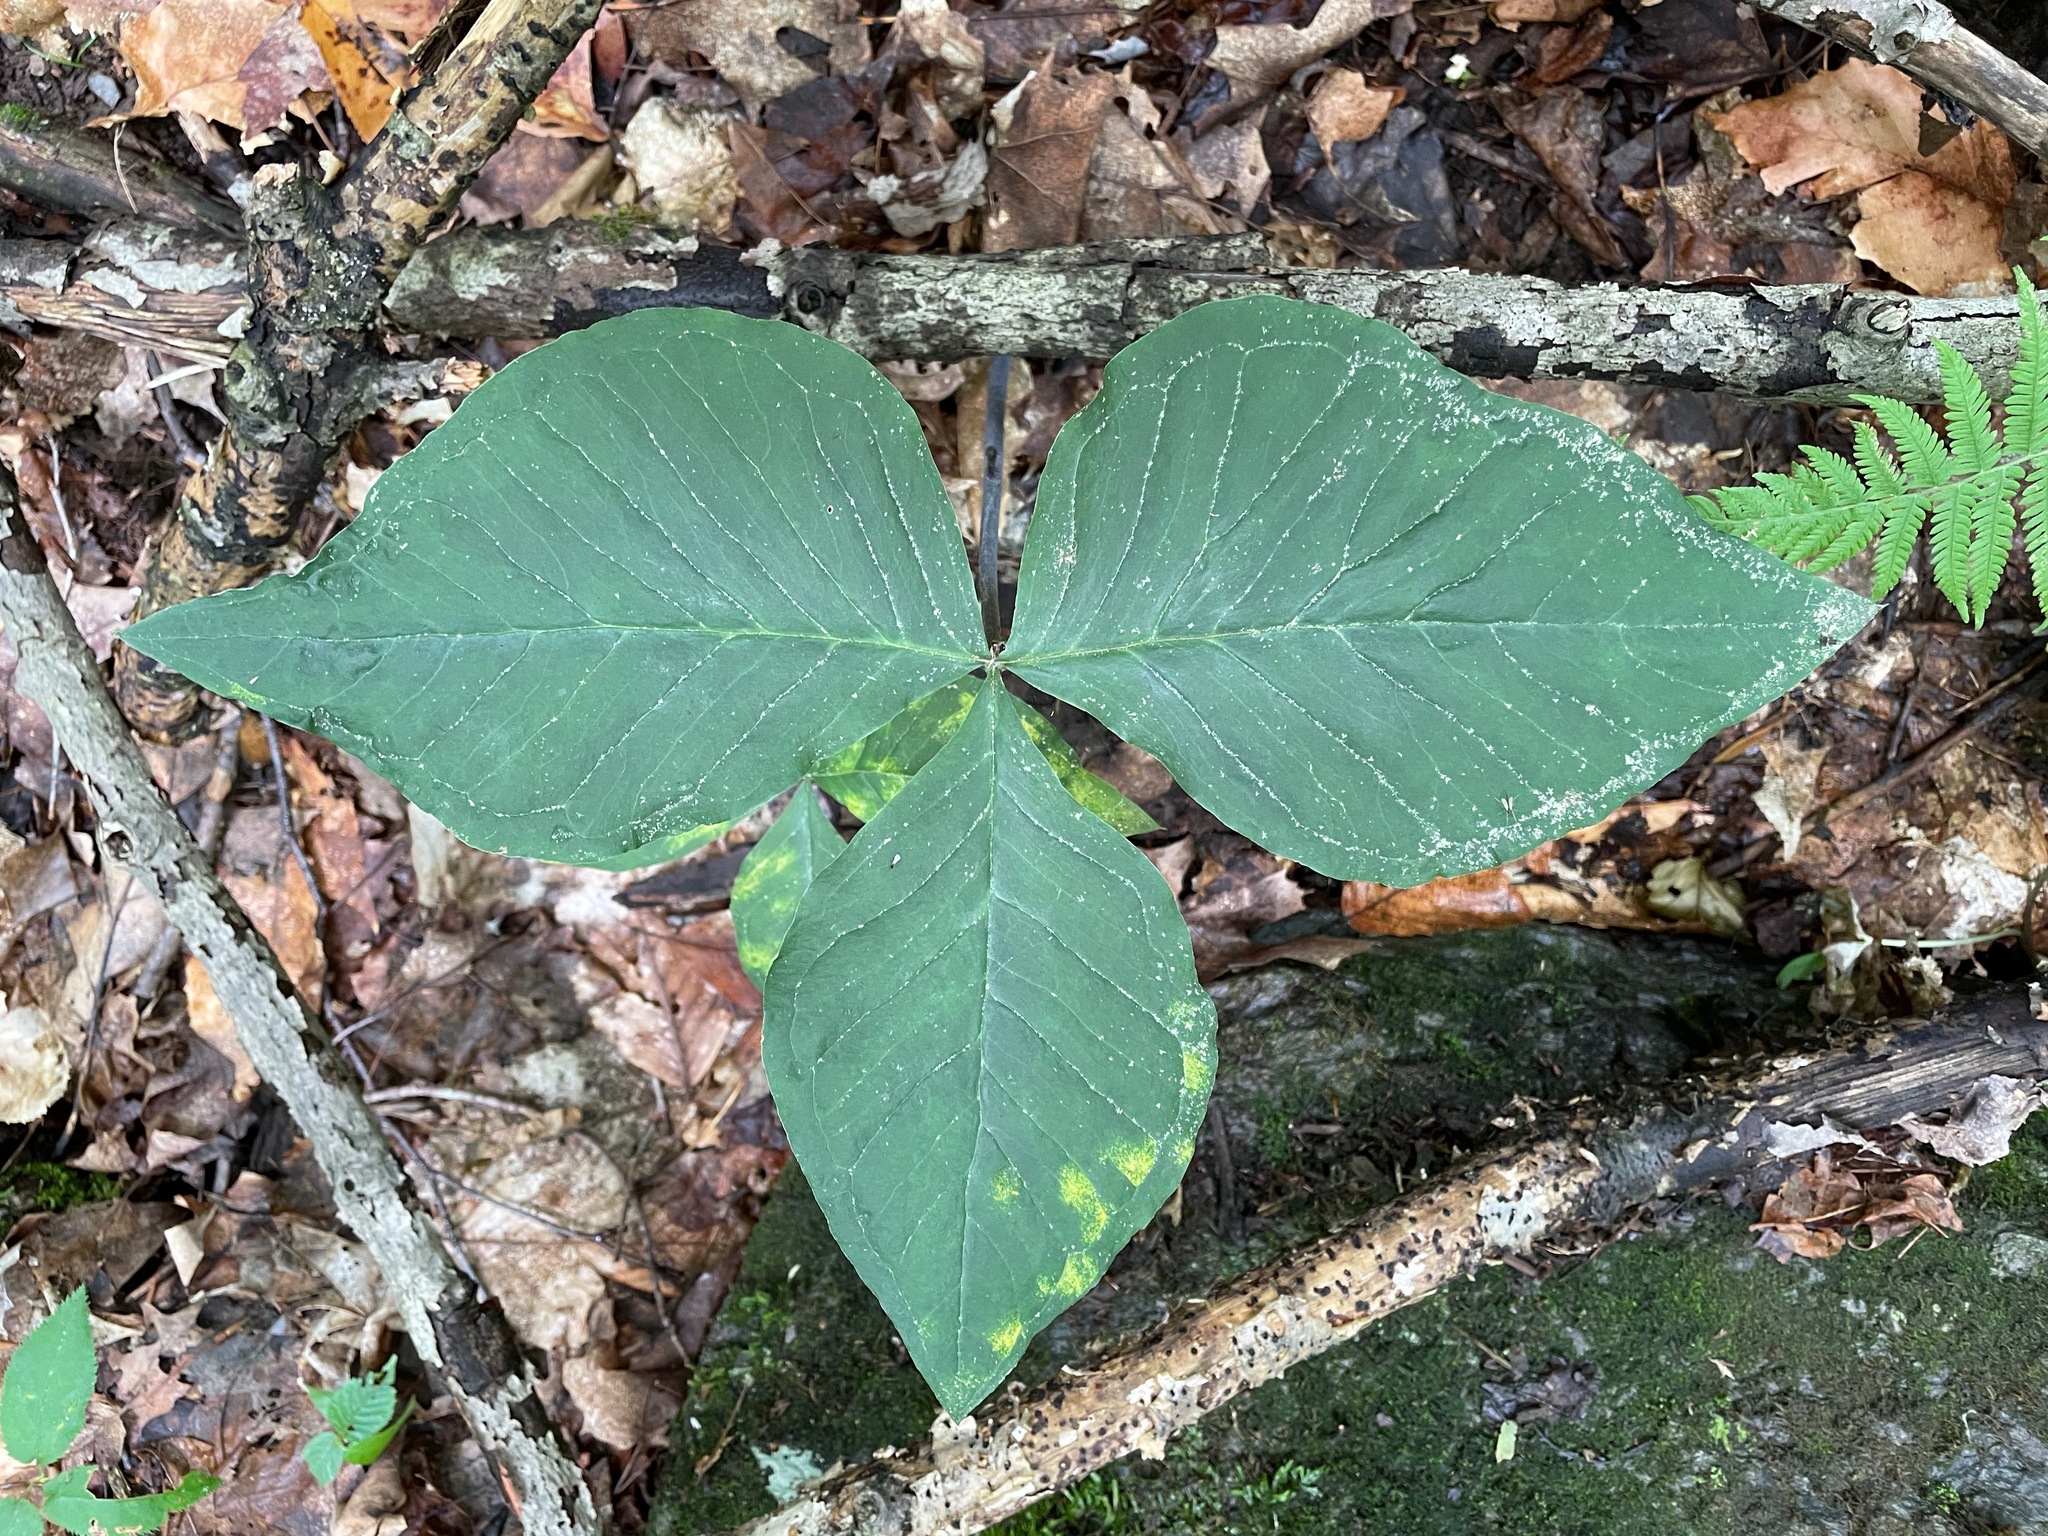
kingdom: Plantae
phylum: Tracheophyta
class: Liliopsida
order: Alismatales
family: Araceae
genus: Arisaema
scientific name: Arisaema
